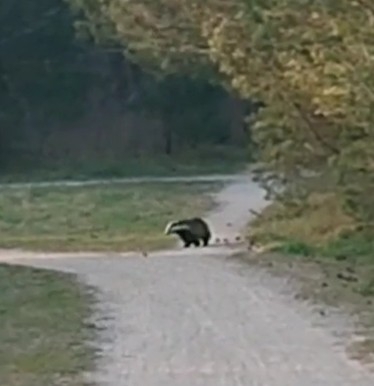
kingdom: Animalia
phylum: Chordata
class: Mammalia
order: Carnivora
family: Mustelidae
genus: Meles
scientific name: Meles meles
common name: Eurasian badger
